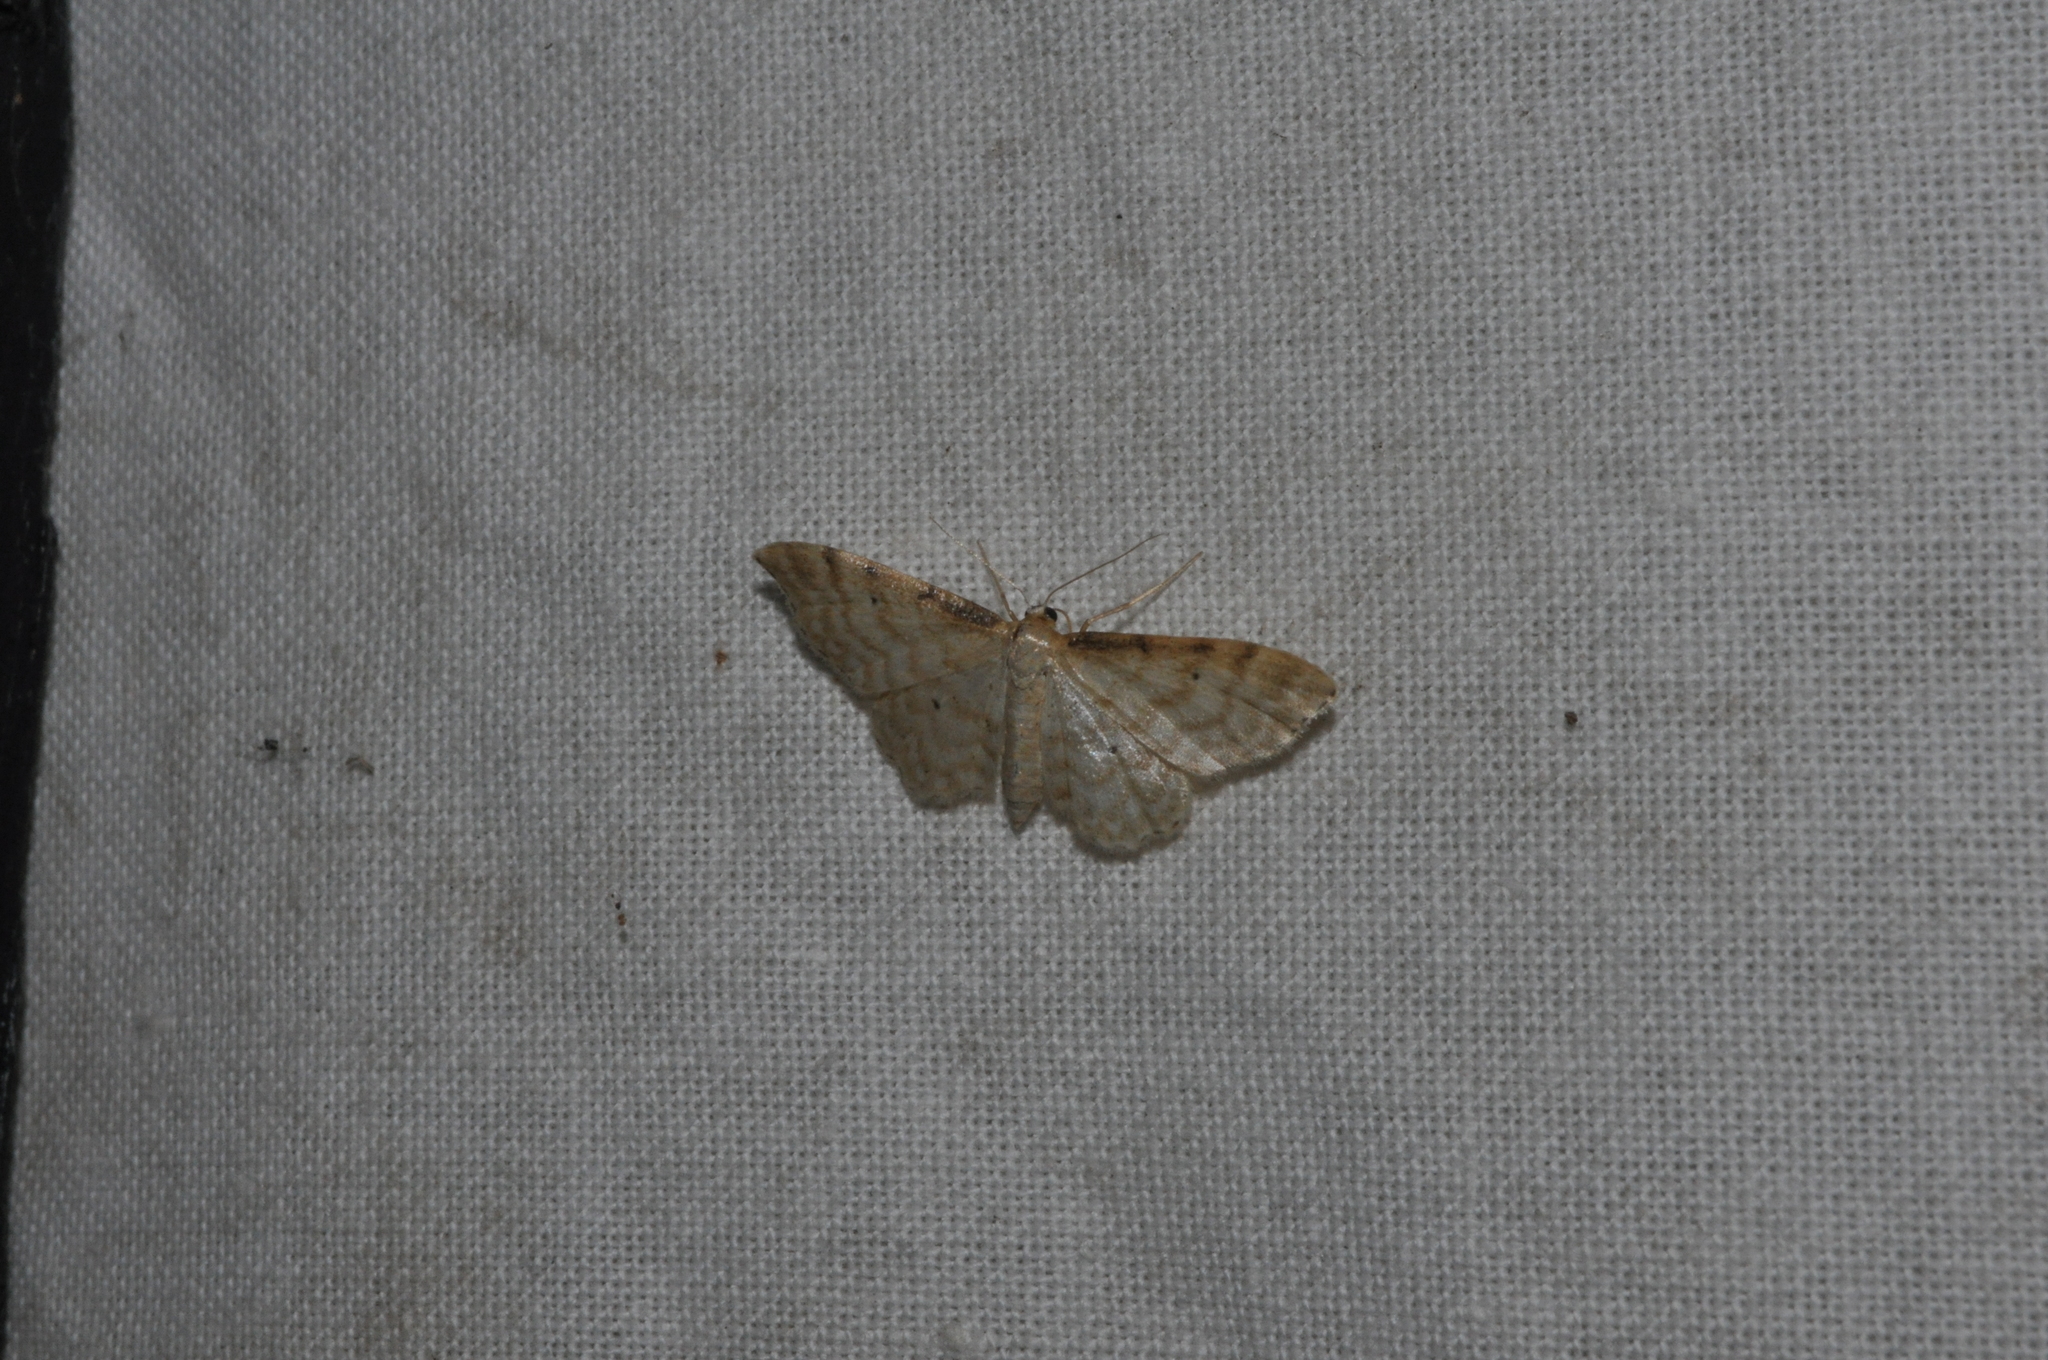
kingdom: Animalia
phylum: Arthropoda
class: Insecta
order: Lepidoptera
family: Geometridae
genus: Idaea
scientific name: Idaea fuscovenosa
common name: Dwarf cream wave
